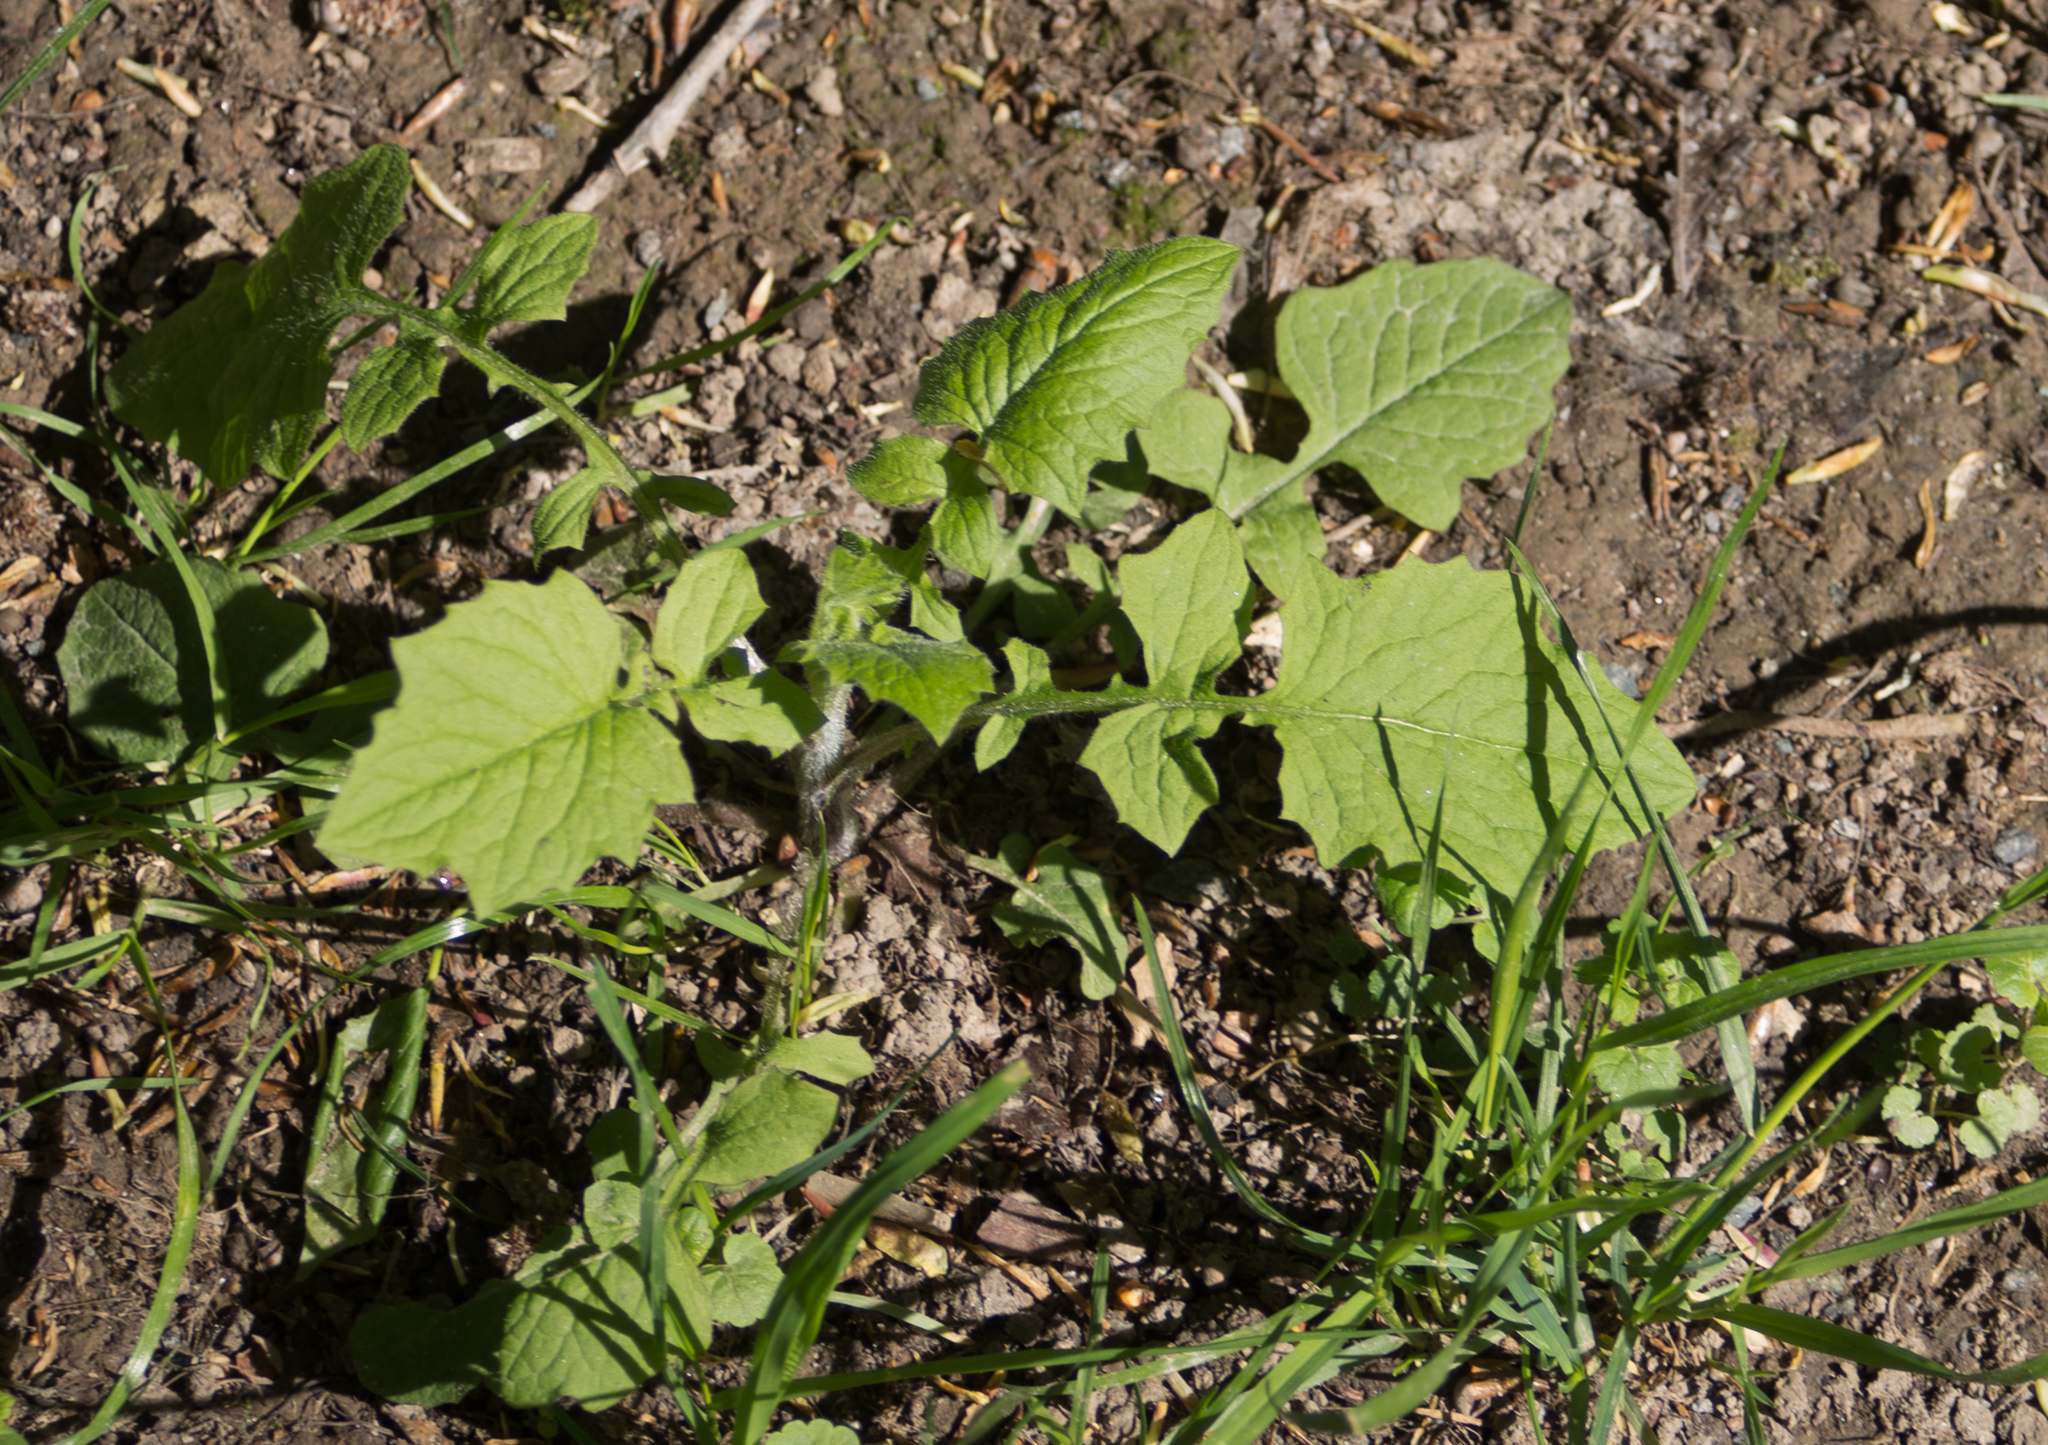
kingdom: Plantae
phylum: Tracheophyta
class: Magnoliopsida
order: Asterales
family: Asteraceae
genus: Lapsana
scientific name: Lapsana communis
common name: Nipplewort
